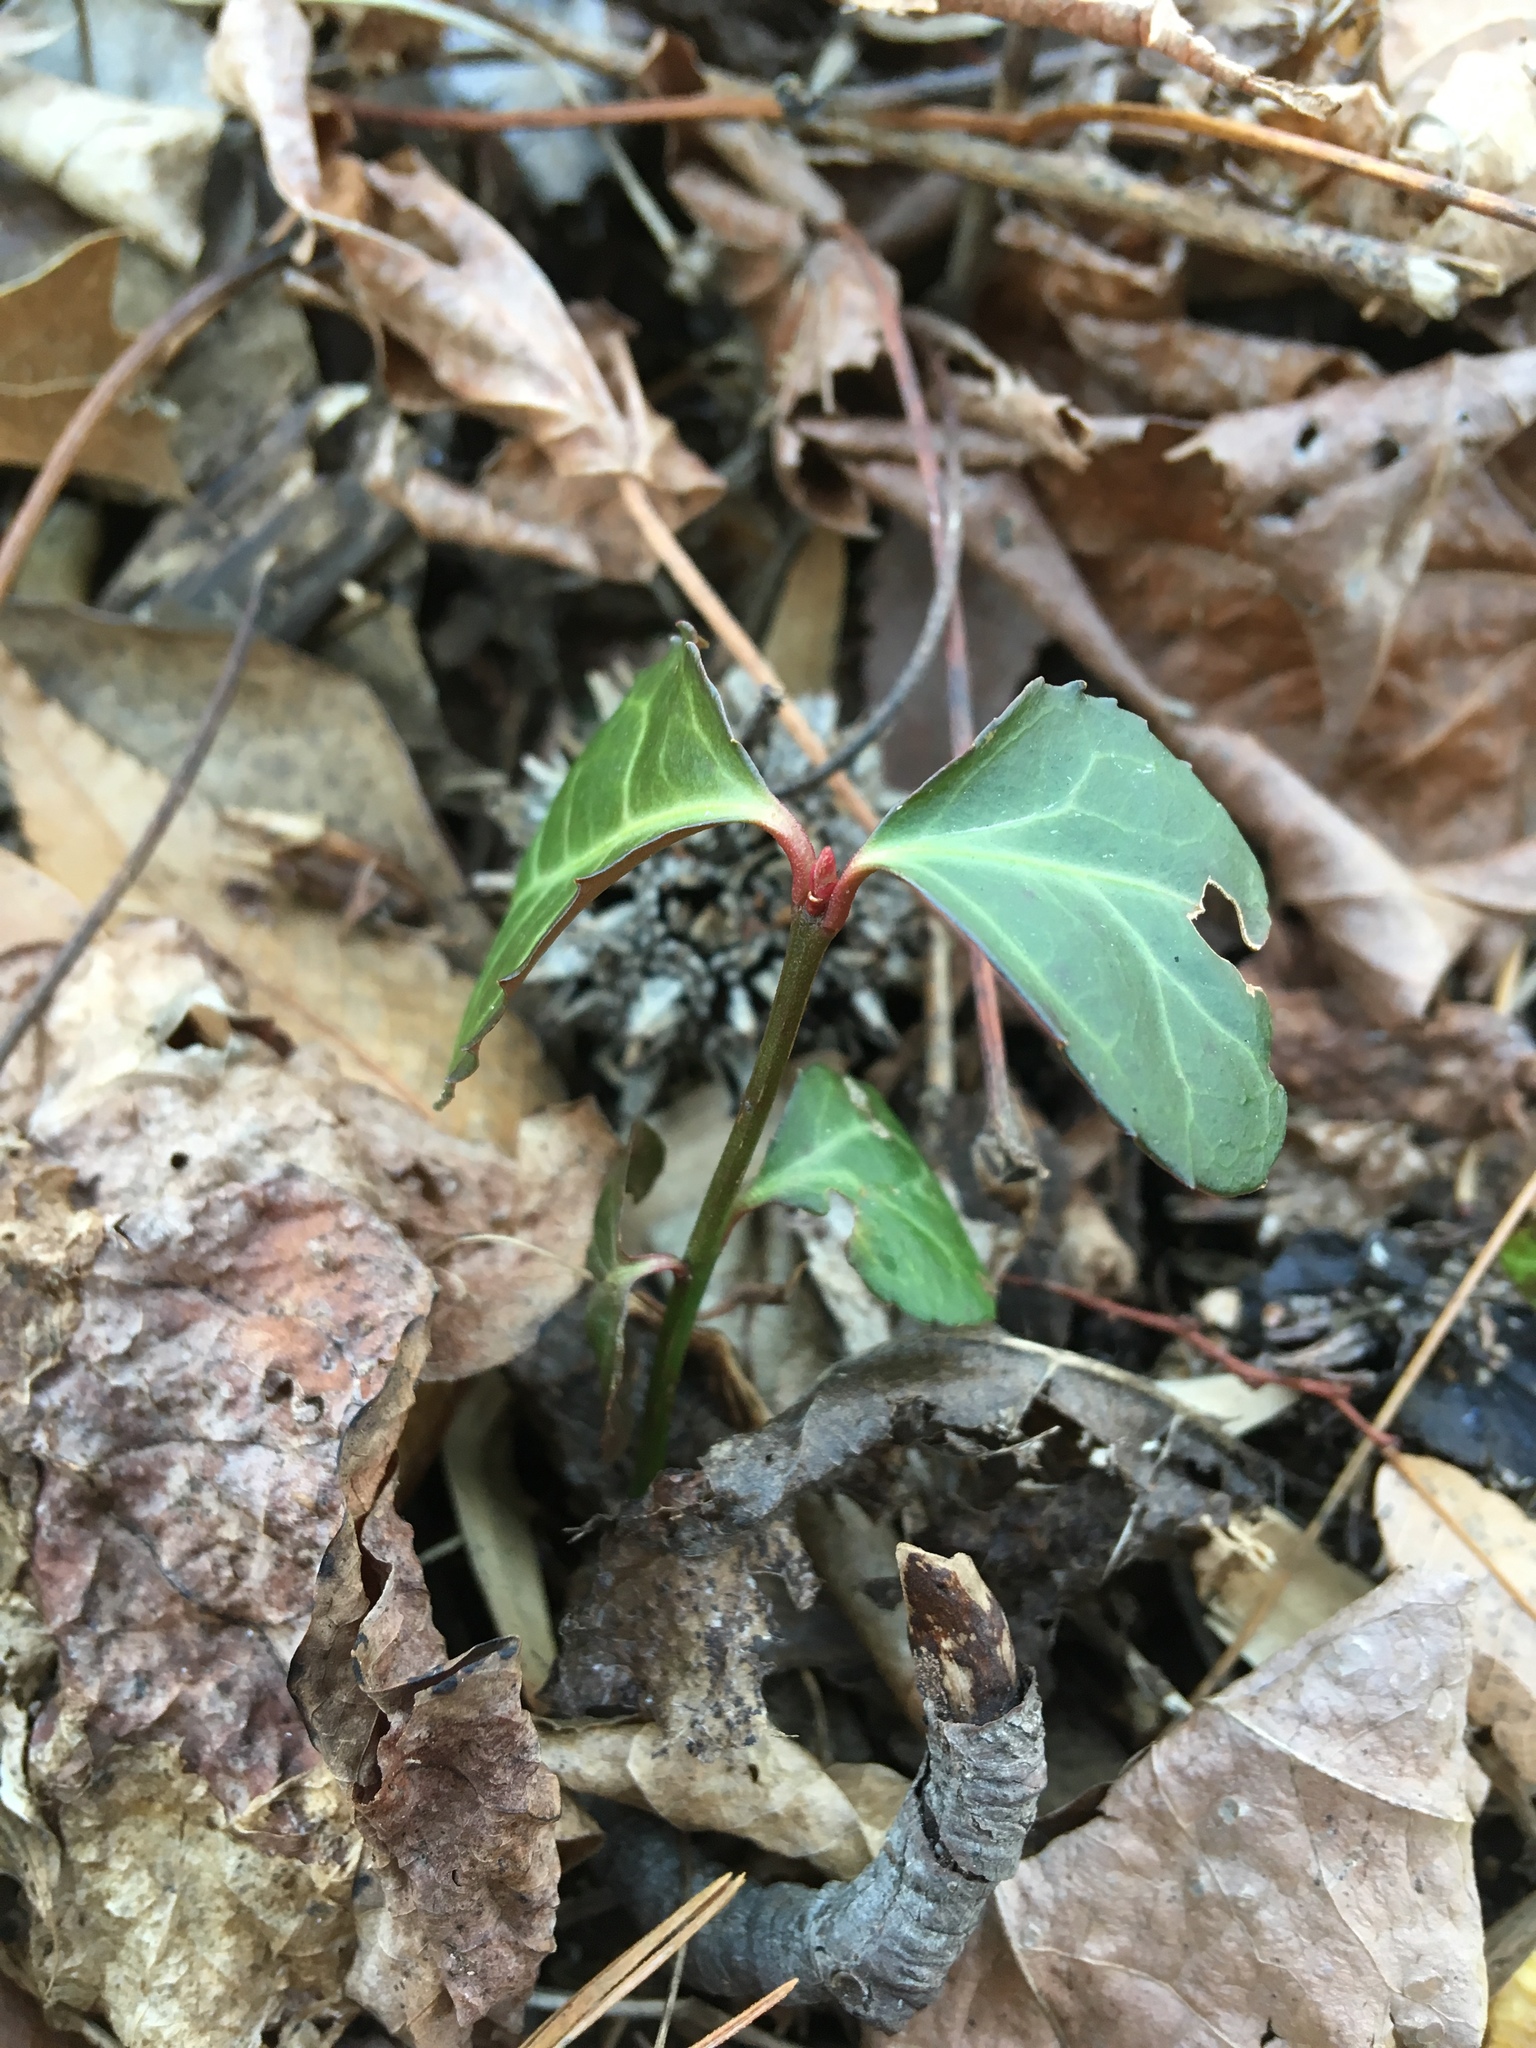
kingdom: Plantae
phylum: Tracheophyta
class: Magnoliopsida
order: Celastrales
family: Celastraceae
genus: Euonymus
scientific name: Euonymus fortunei
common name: Climbing euonymus
